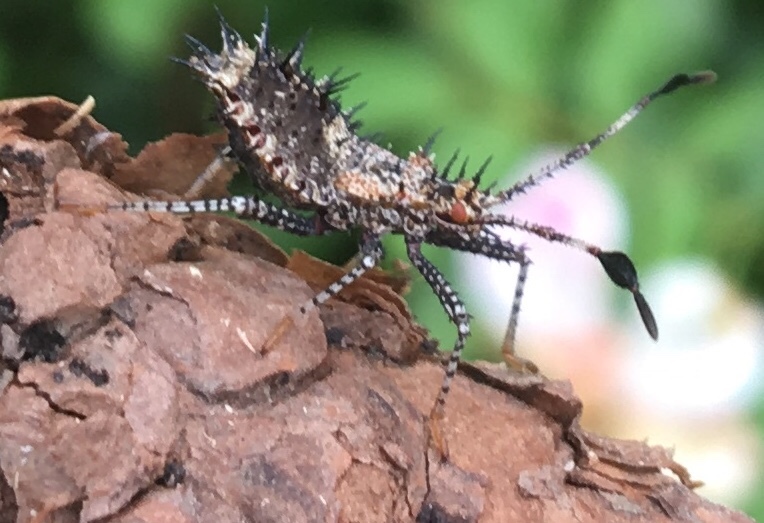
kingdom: Animalia
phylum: Arthropoda
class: Insecta
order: Hemiptera
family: Coreidae
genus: Euthochtha
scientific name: Euthochtha galeator
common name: Helmeted squash bug
